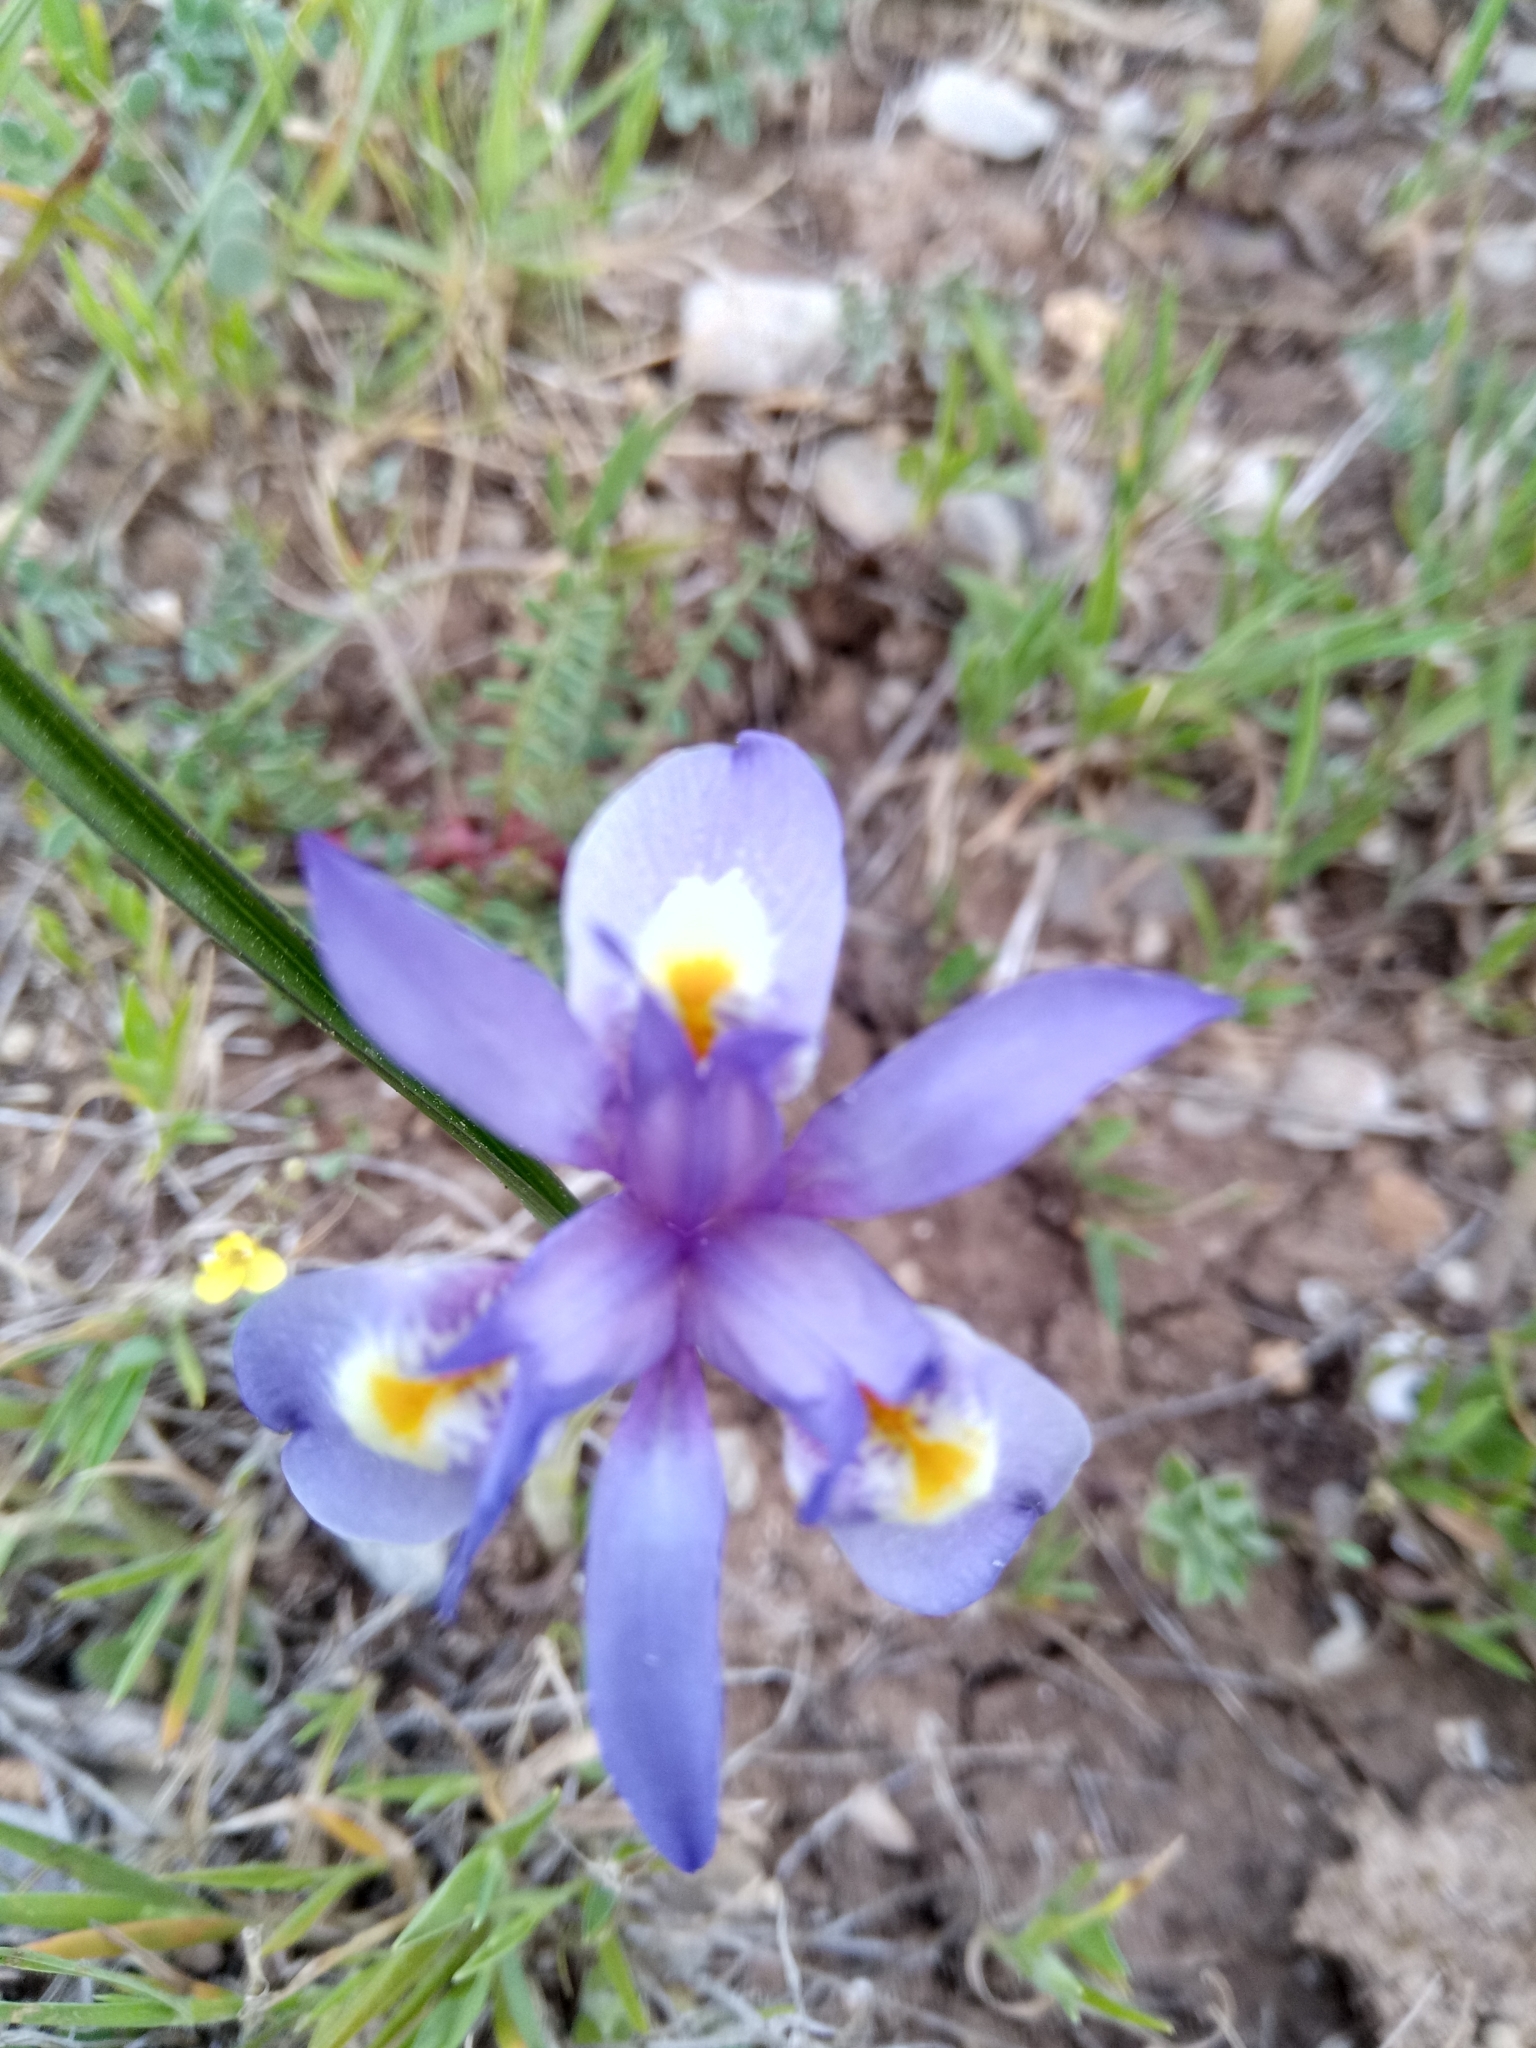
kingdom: Plantae
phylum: Tracheophyta
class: Liliopsida
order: Asparagales
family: Iridaceae
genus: Moraea
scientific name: Moraea sisyrinchium
